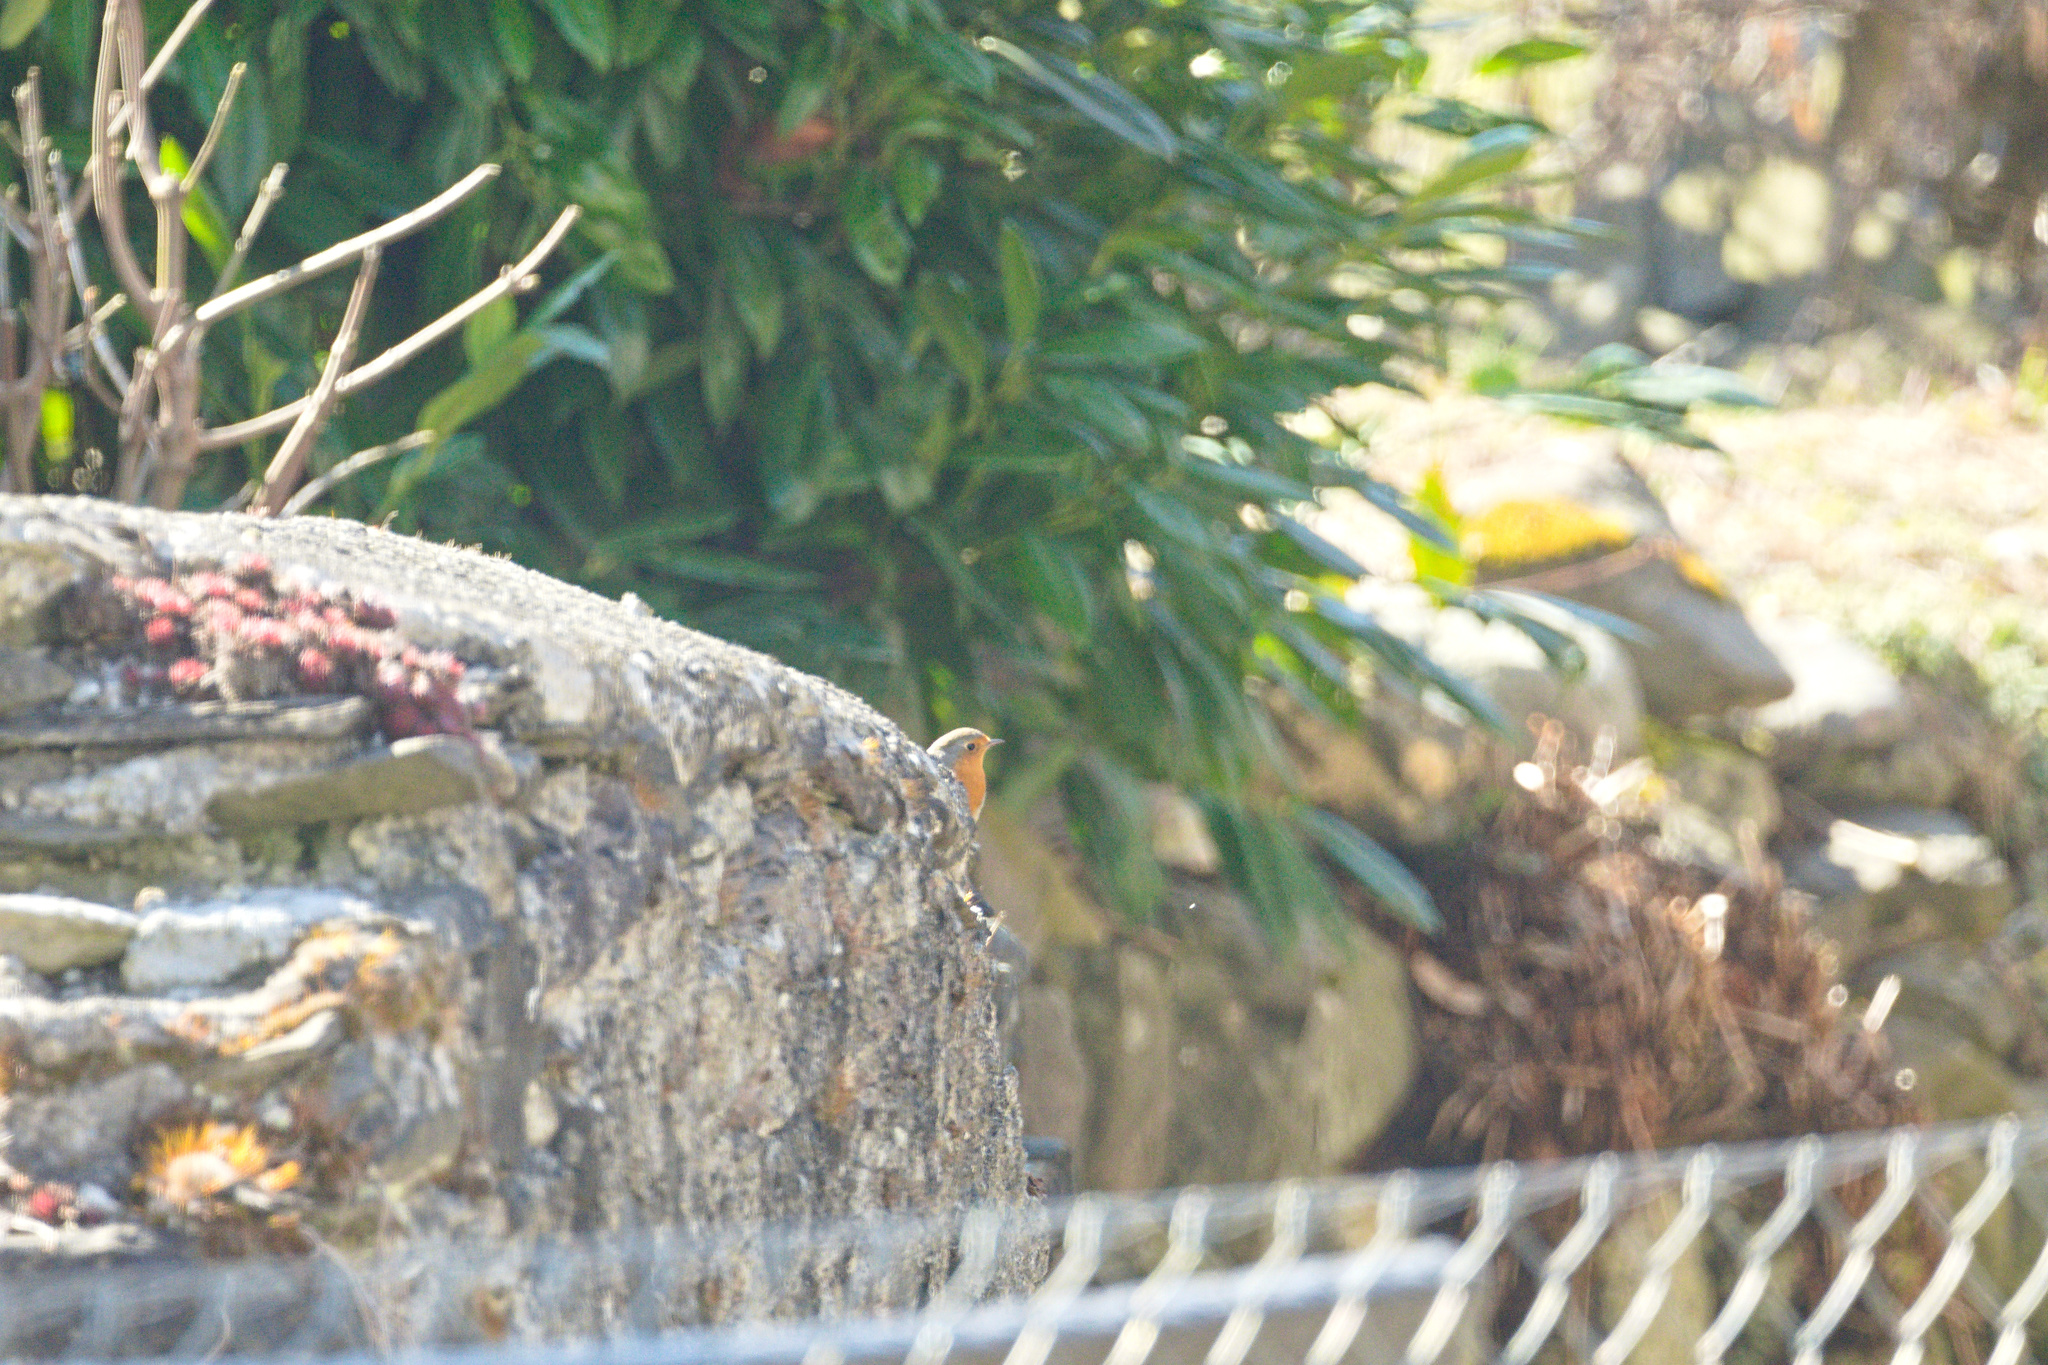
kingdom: Animalia
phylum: Chordata
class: Aves
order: Passeriformes
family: Muscicapidae
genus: Erithacus
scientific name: Erithacus rubecula
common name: European robin
